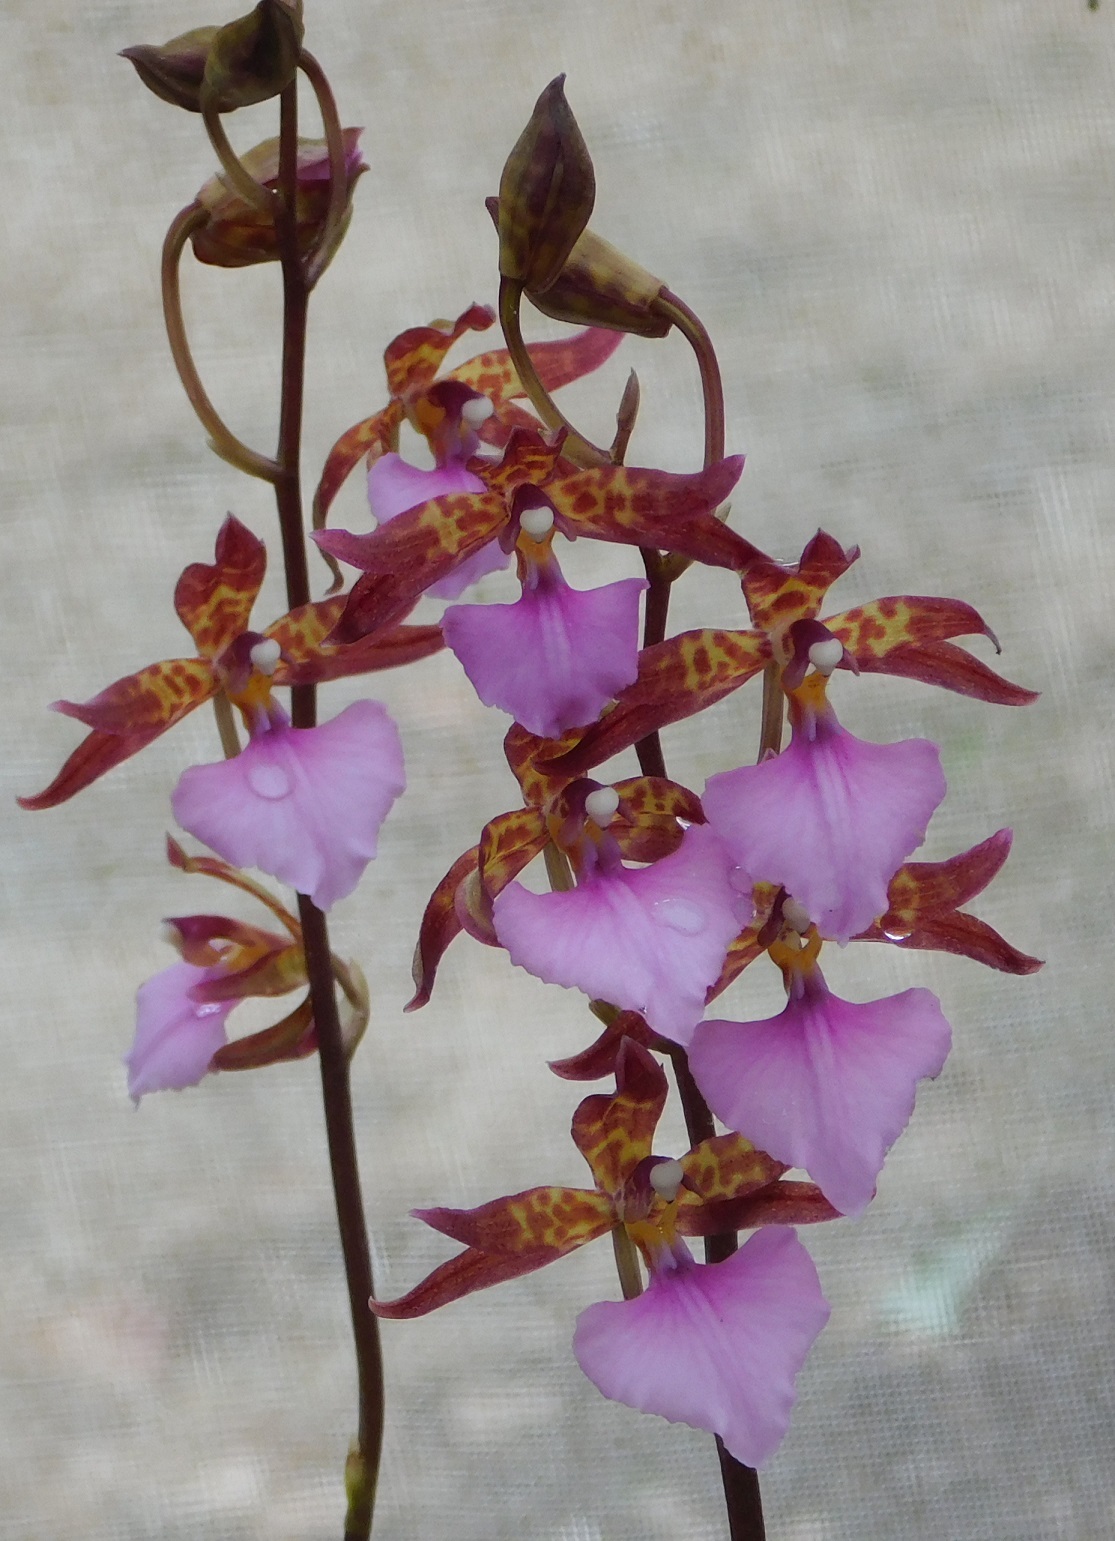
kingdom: Plantae
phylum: Tracheophyta
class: Liliopsida
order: Asparagales
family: Orchidaceae
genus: Rhynchostele
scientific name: Rhynchostele bictoniensis
